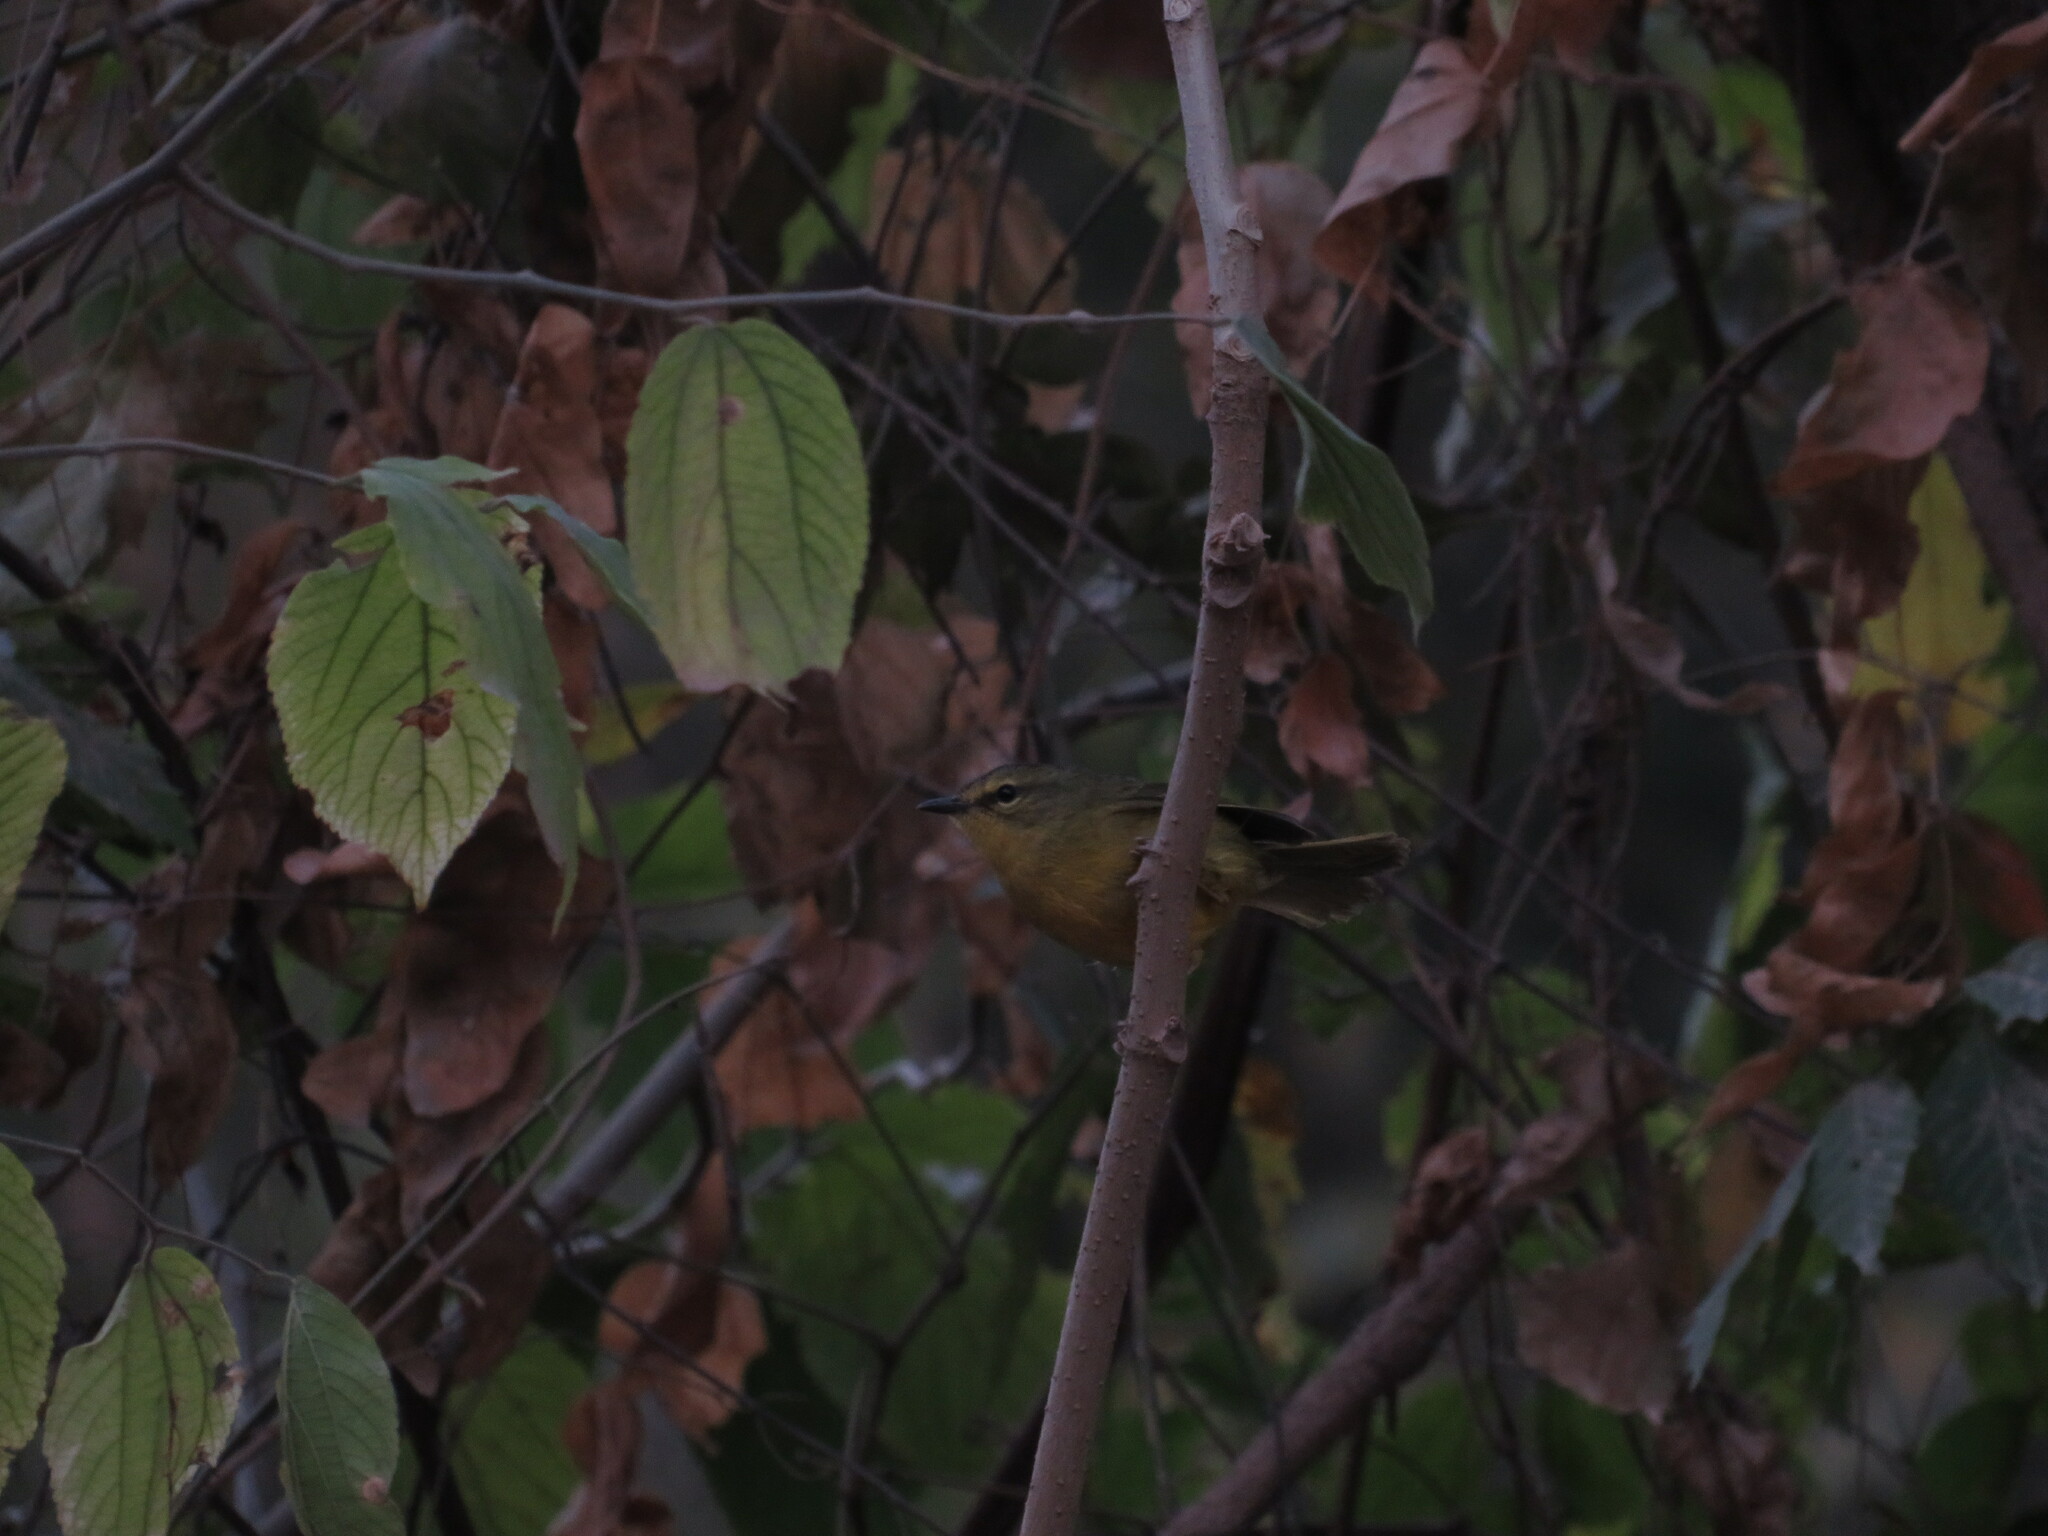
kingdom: Animalia
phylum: Chordata
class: Aves
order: Passeriformes
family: Parulidae
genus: Myiothlypis
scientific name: Myiothlypis bivittata
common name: Two-banded warbler
